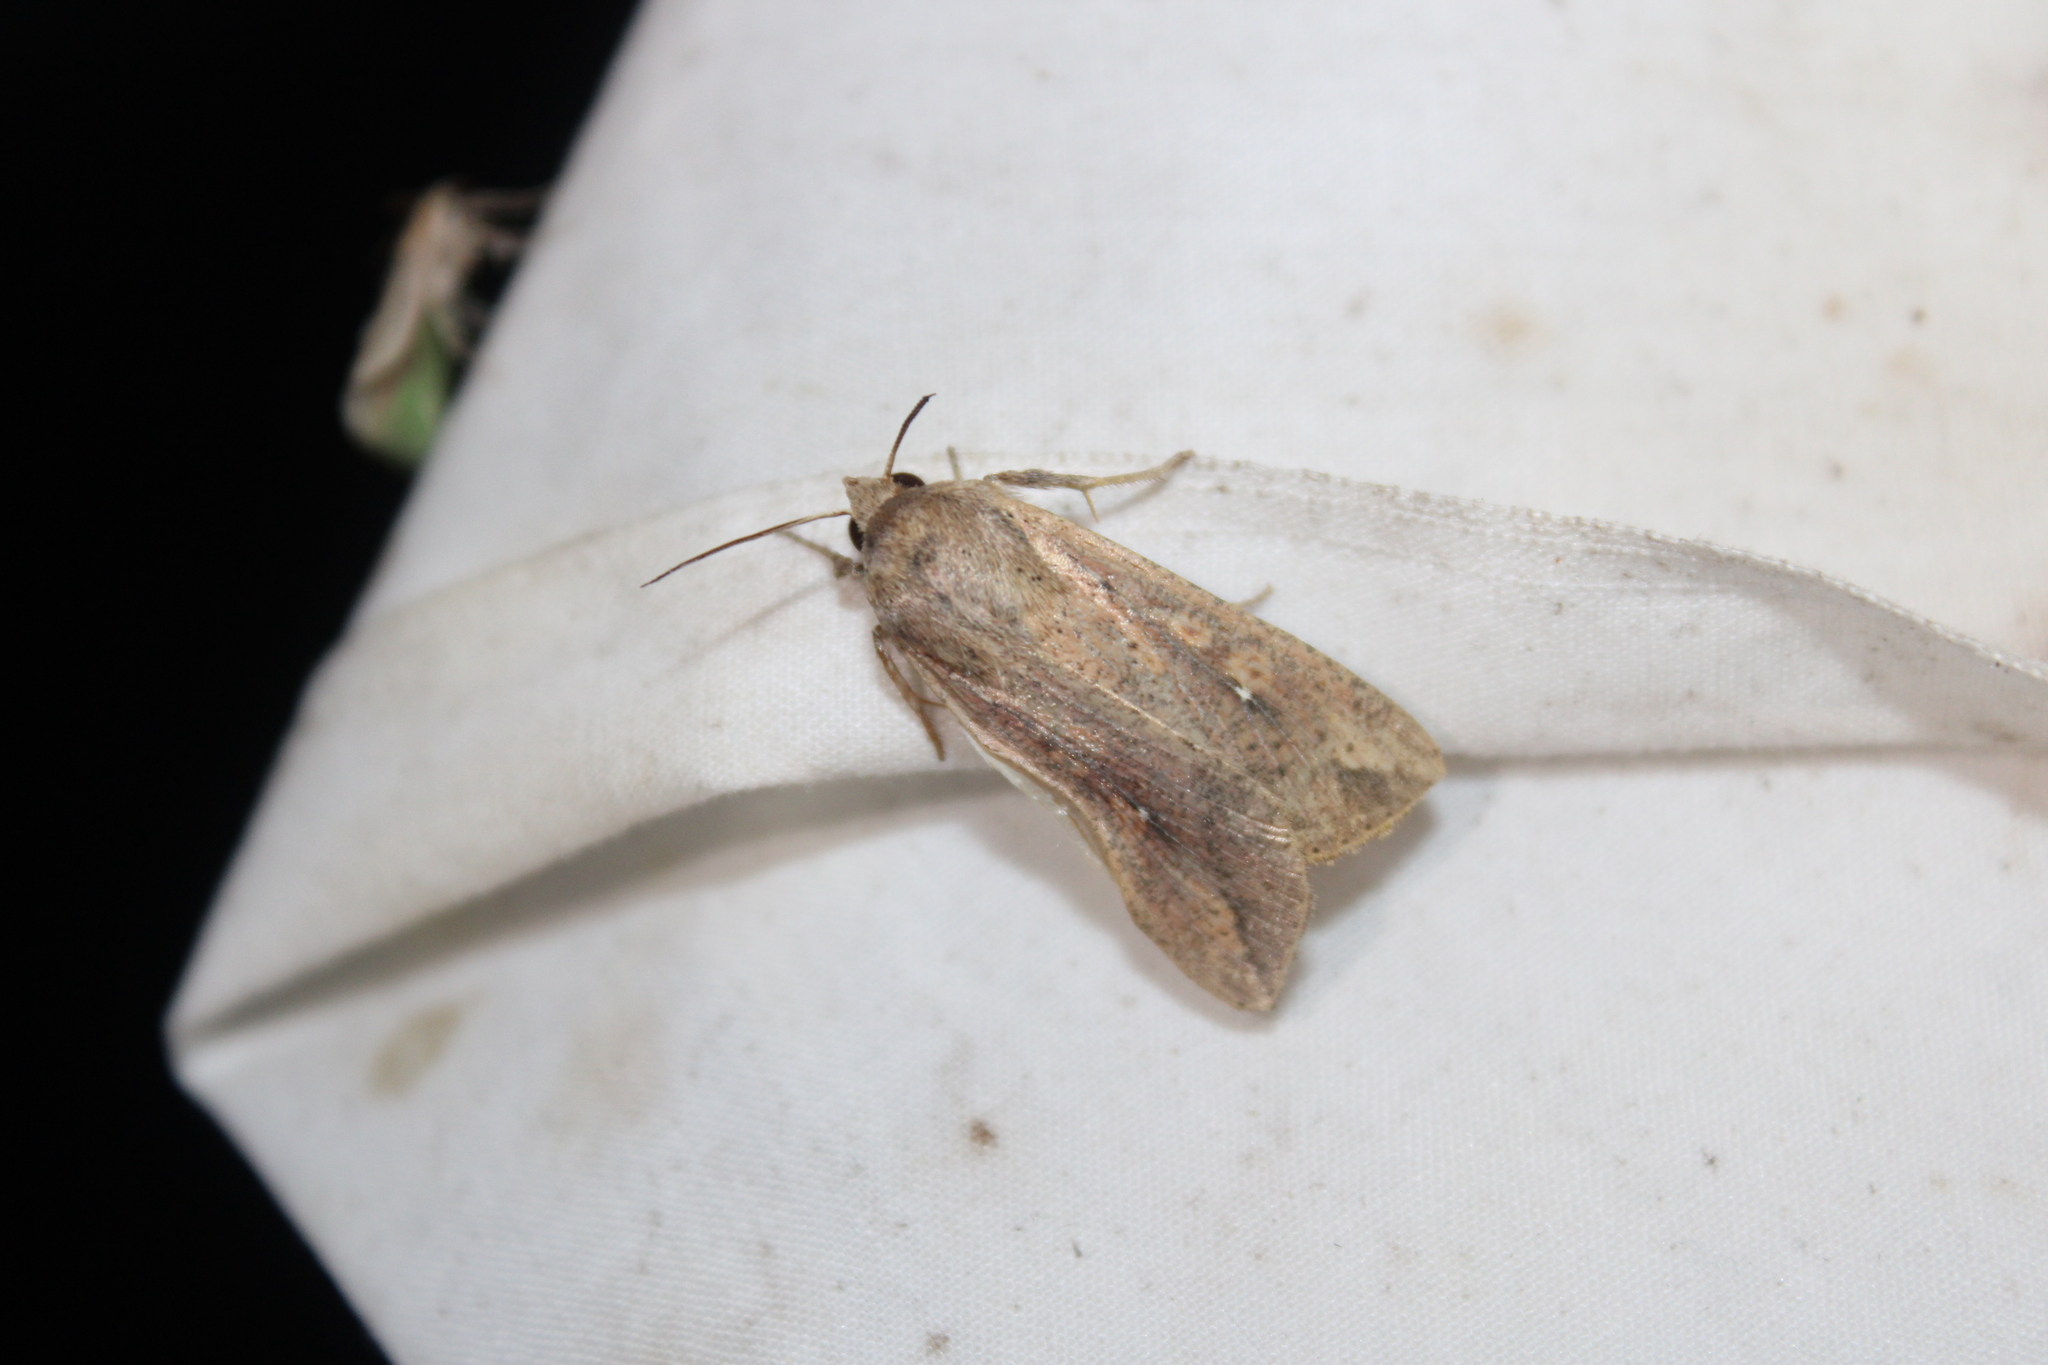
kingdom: Animalia
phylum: Arthropoda
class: Insecta
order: Lepidoptera
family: Noctuidae
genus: Mythimna
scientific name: Mythimna unipuncta
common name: White-speck
